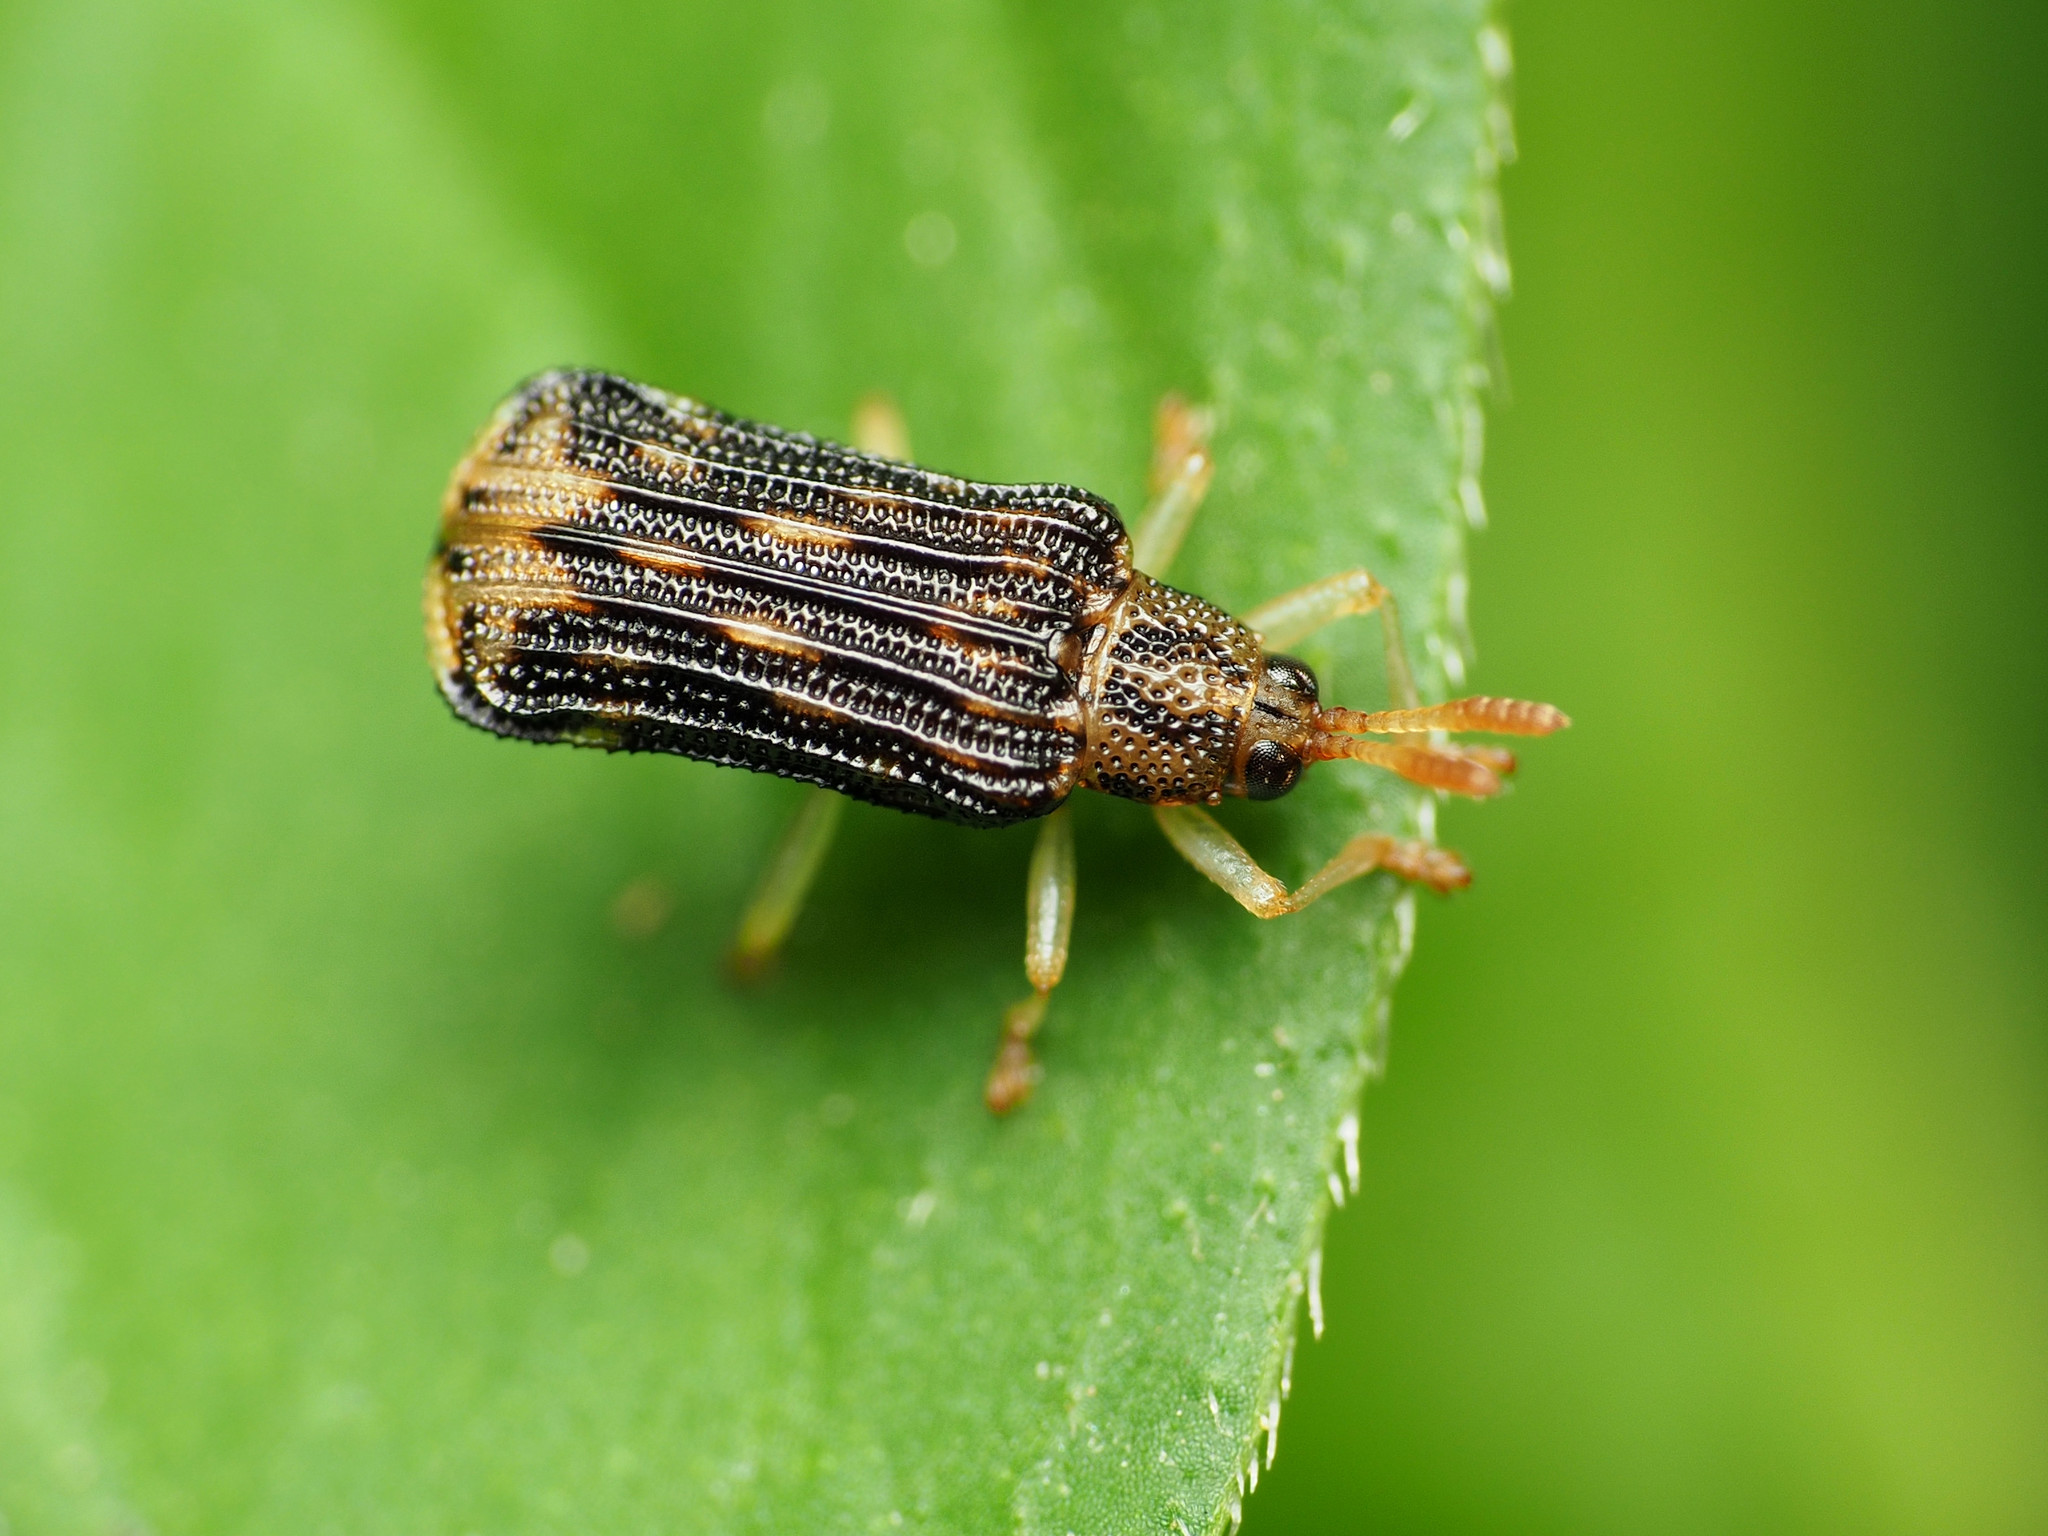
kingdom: Animalia
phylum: Arthropoda
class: Insecta
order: Coleoptera
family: Chrysomelidae
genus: Sumitrosis
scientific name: Sumitrosis rosea
